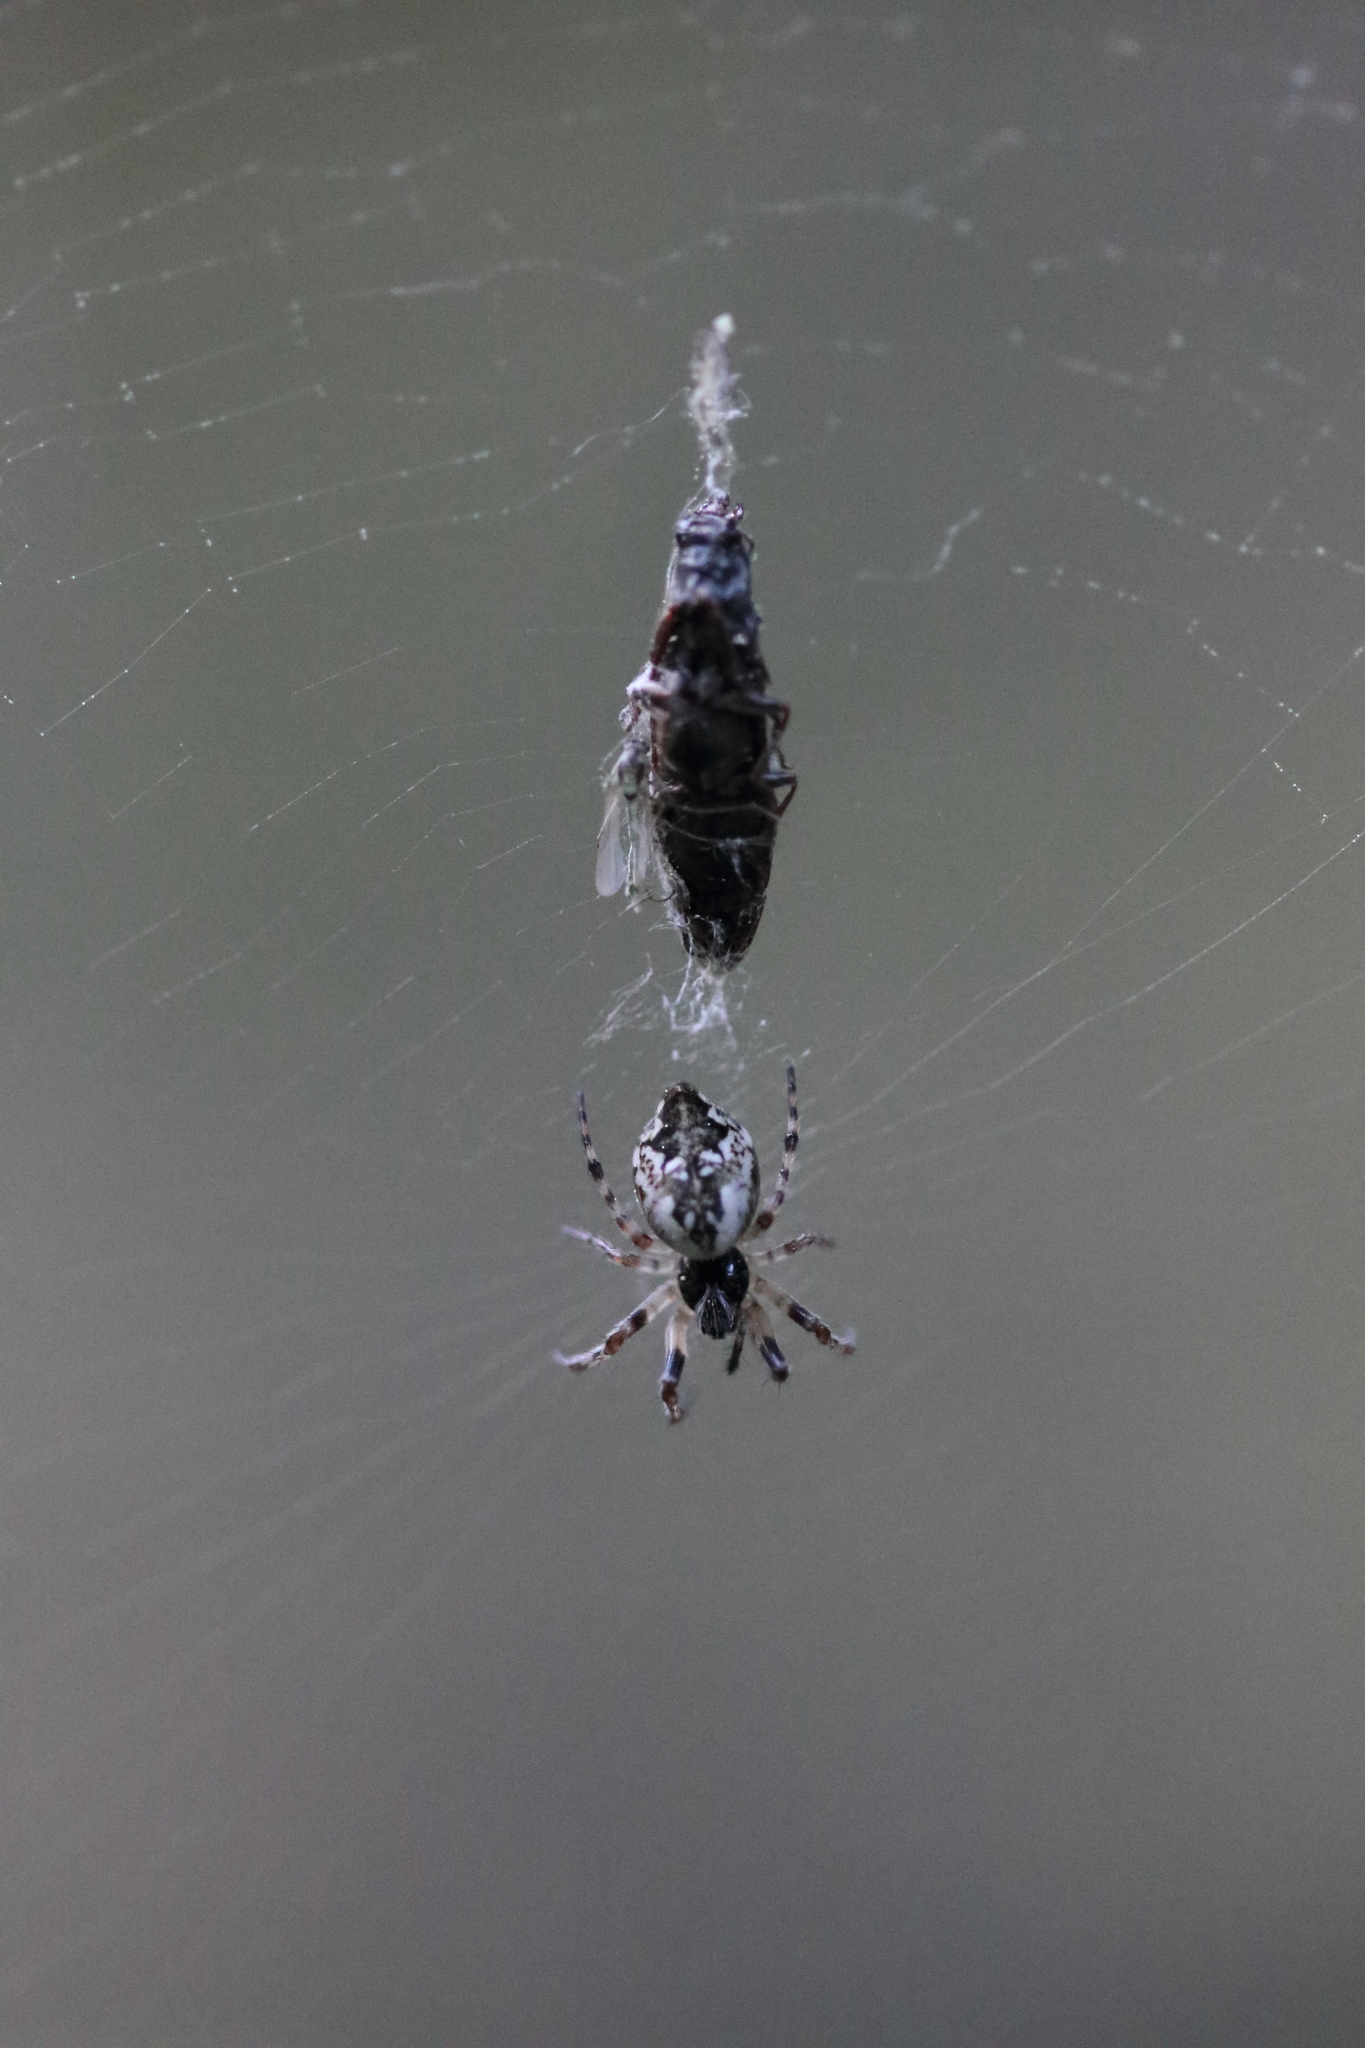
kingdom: Animalia
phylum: Arthropoda
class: Arachnida
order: Araneae
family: Araneidae
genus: Cyclosa
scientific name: Cyclosa conica
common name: Conical trashline orbweaver
